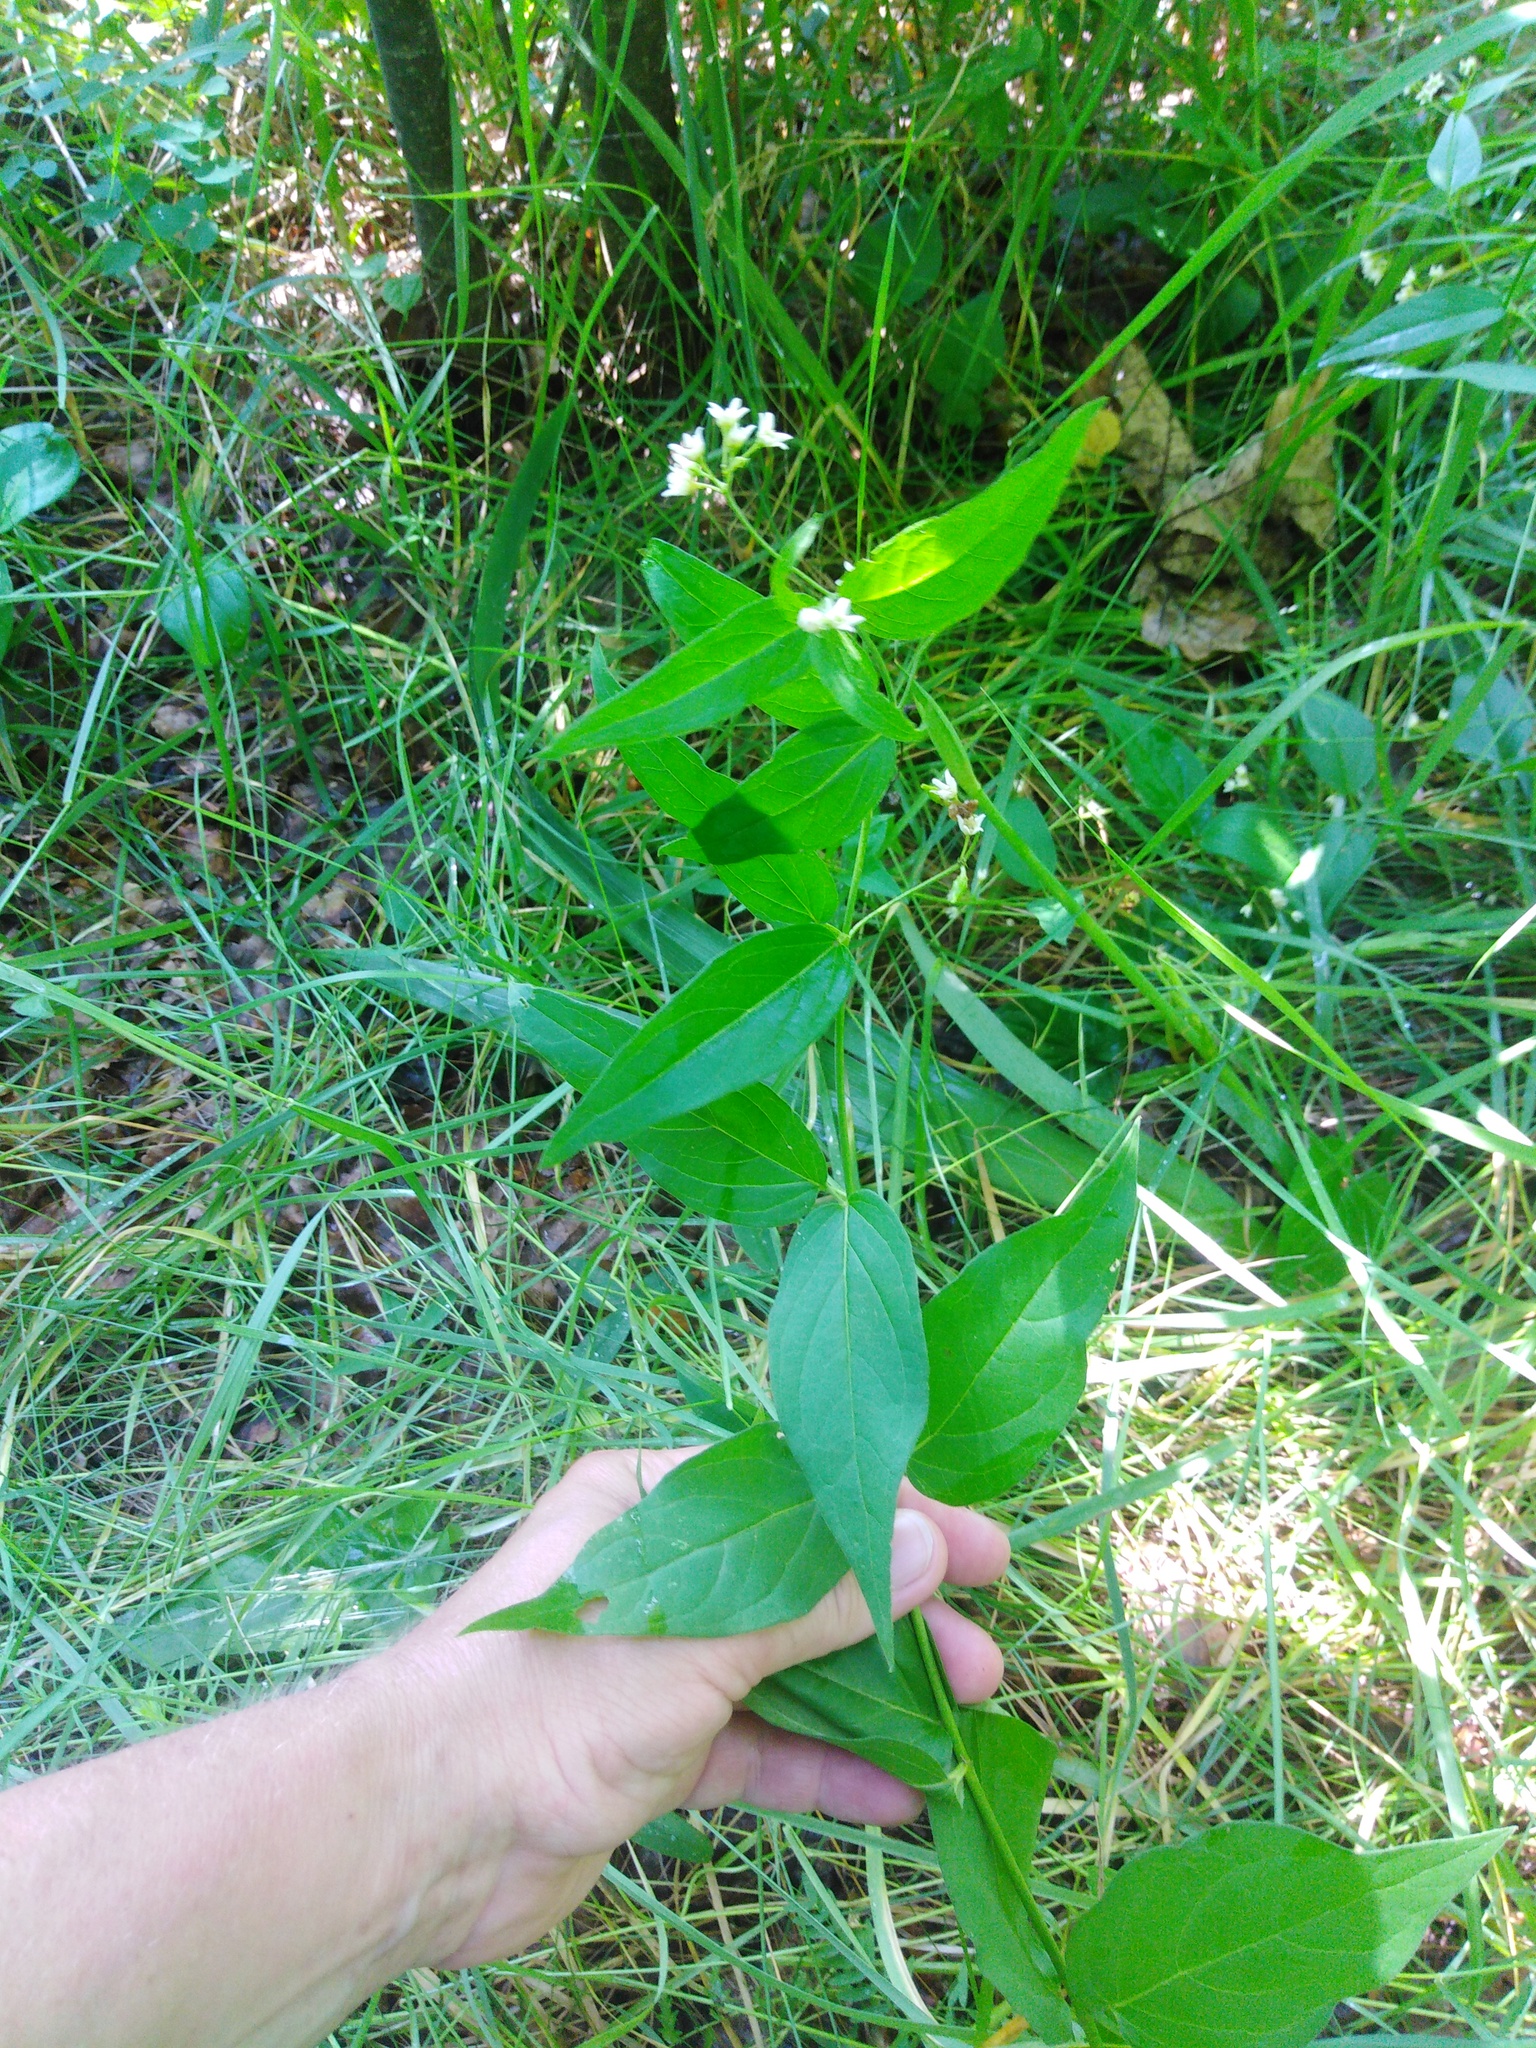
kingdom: Plantae
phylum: Tracheophyta
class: Magnoliopsida
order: Gentianales
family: Apocynaceae
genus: Vincetoxicum
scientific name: Vincetoxicum hirundinaria
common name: White swallowwort
